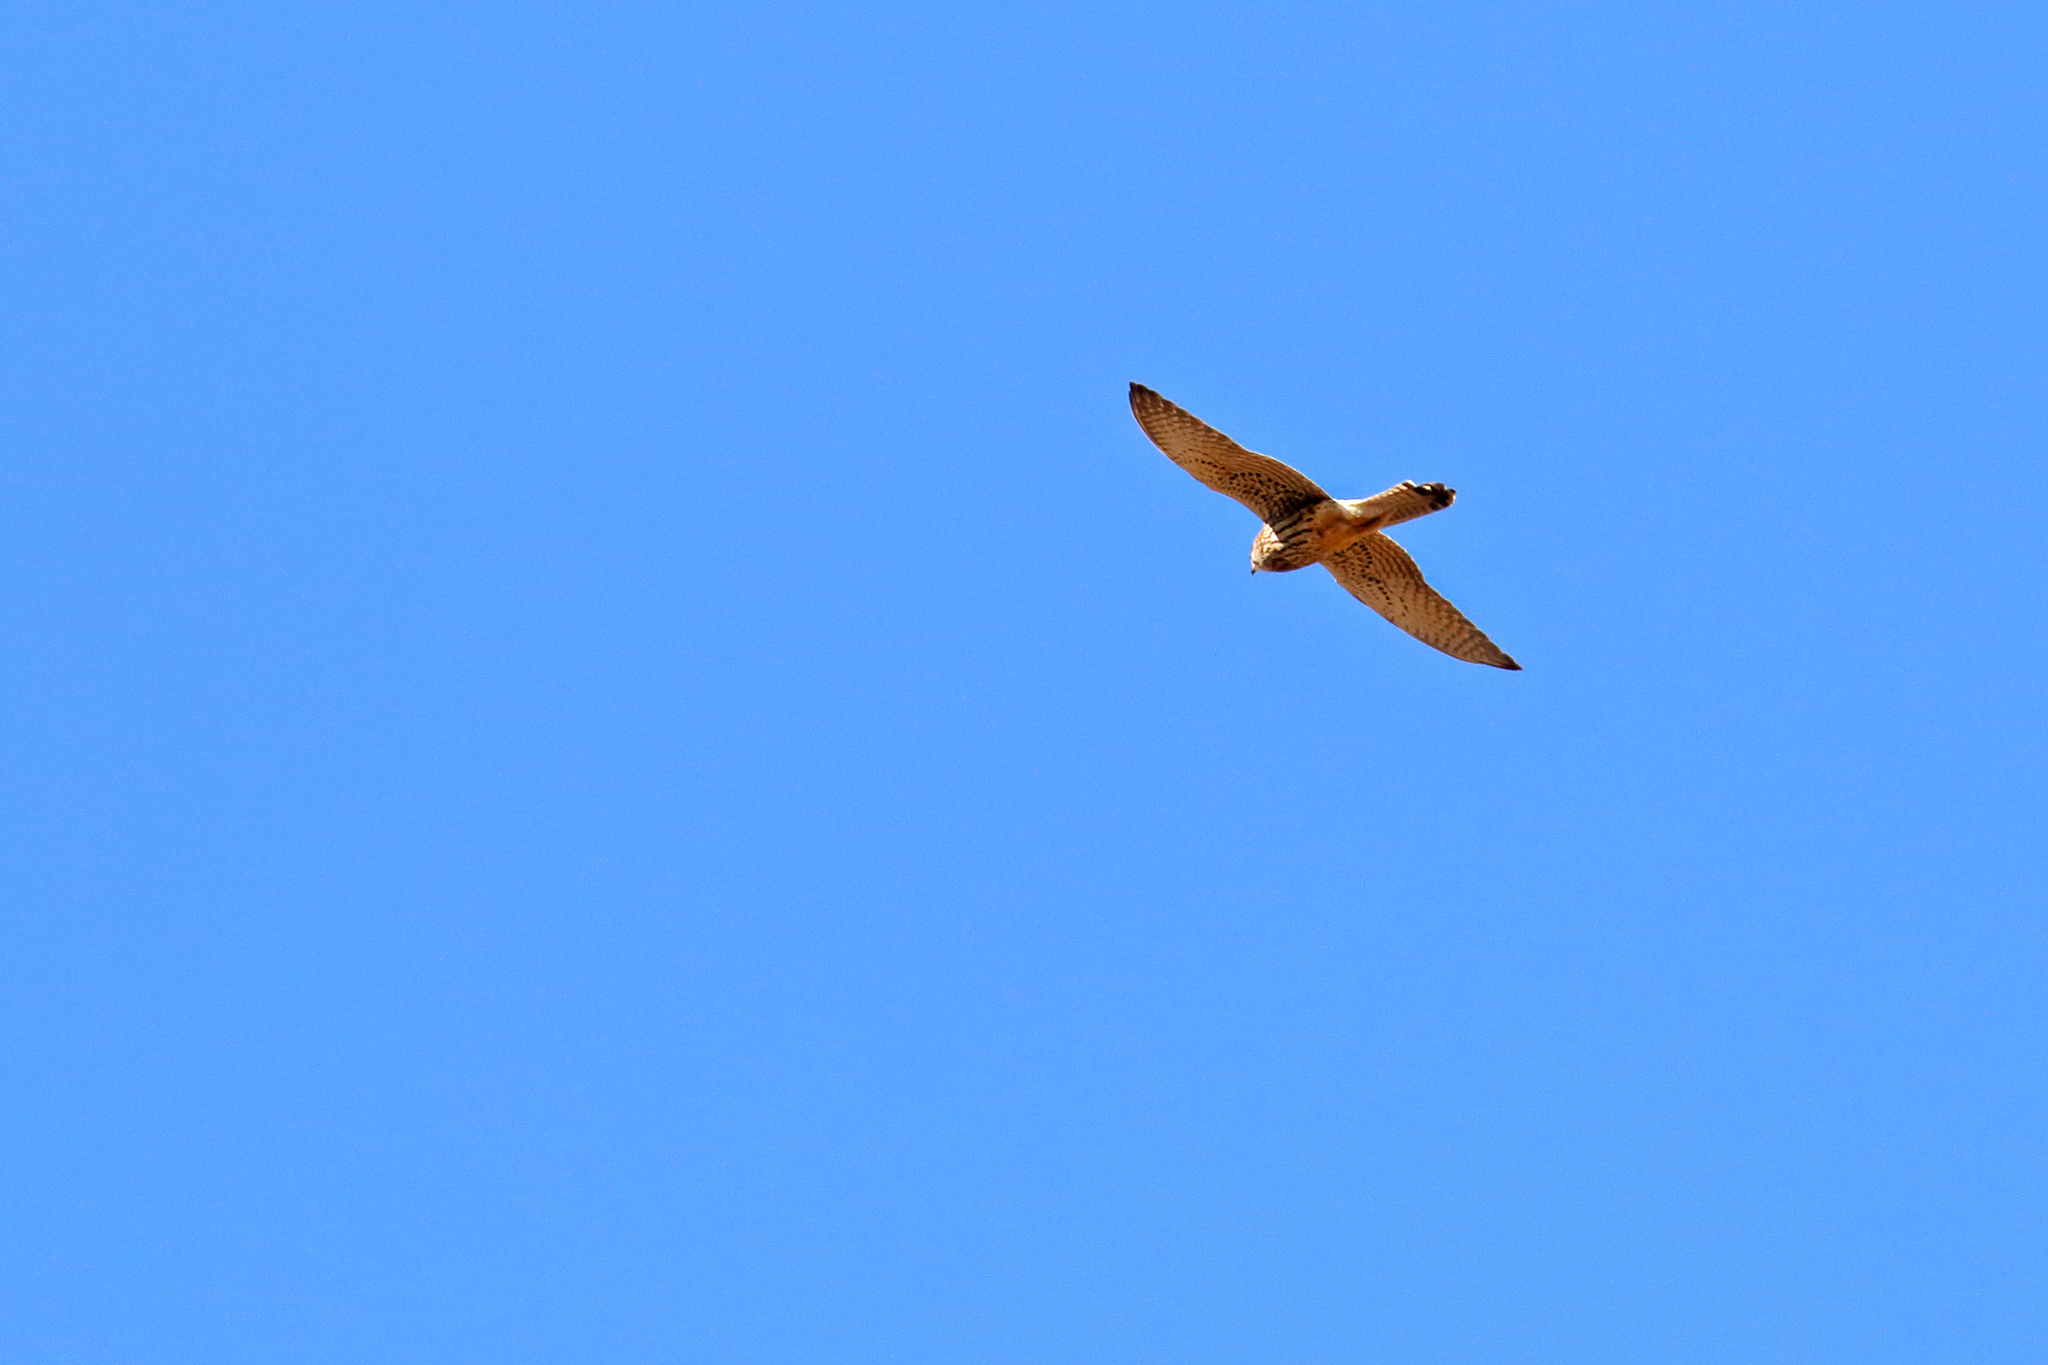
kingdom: Animalia
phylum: Chordata
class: Aves
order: Falconiformes
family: Falconidae
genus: Falco
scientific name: Falco tinnunculus
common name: Common kestrel
